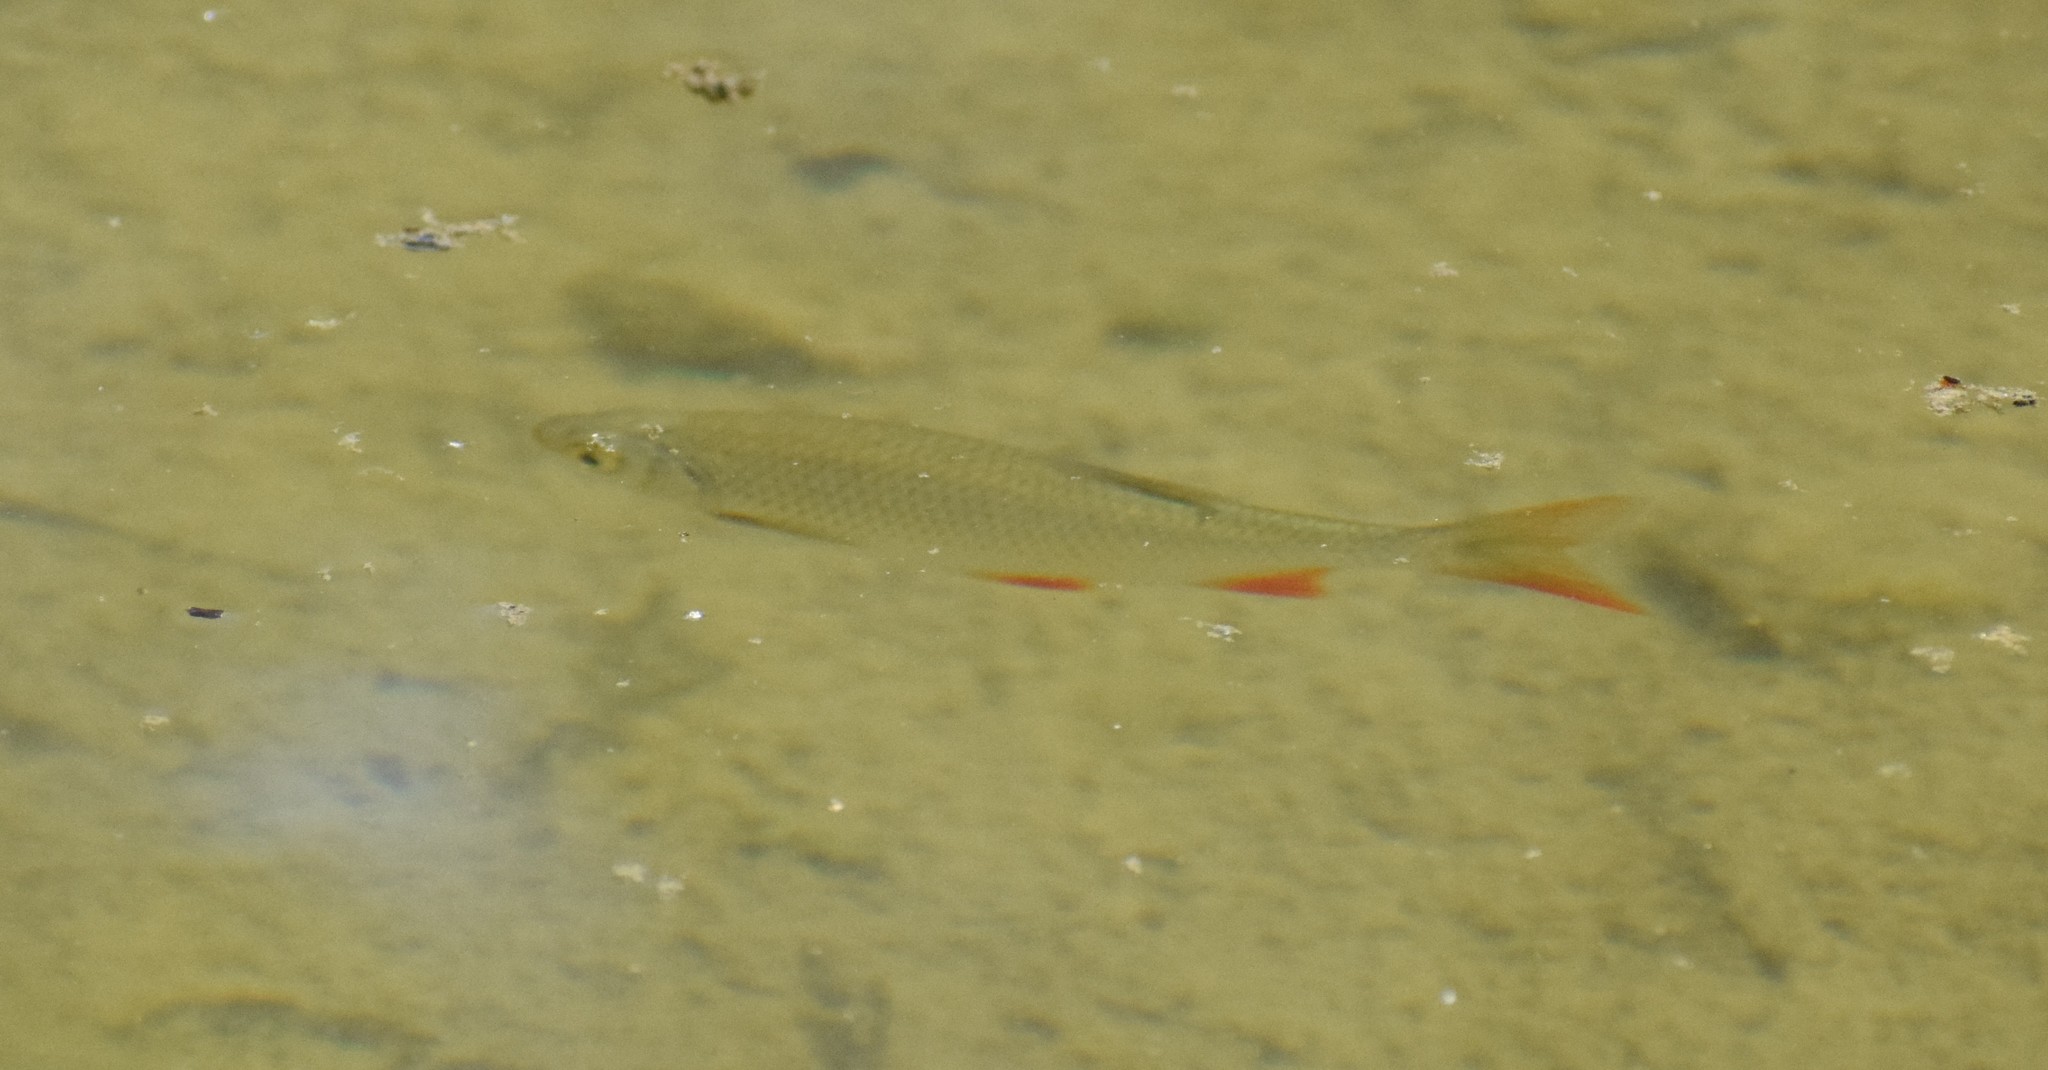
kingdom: Animalia
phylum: Chordata
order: Cypriniformes
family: Cyprinidae
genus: Scardinius
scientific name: Scardinius erythrophthalmus
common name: Rudd
